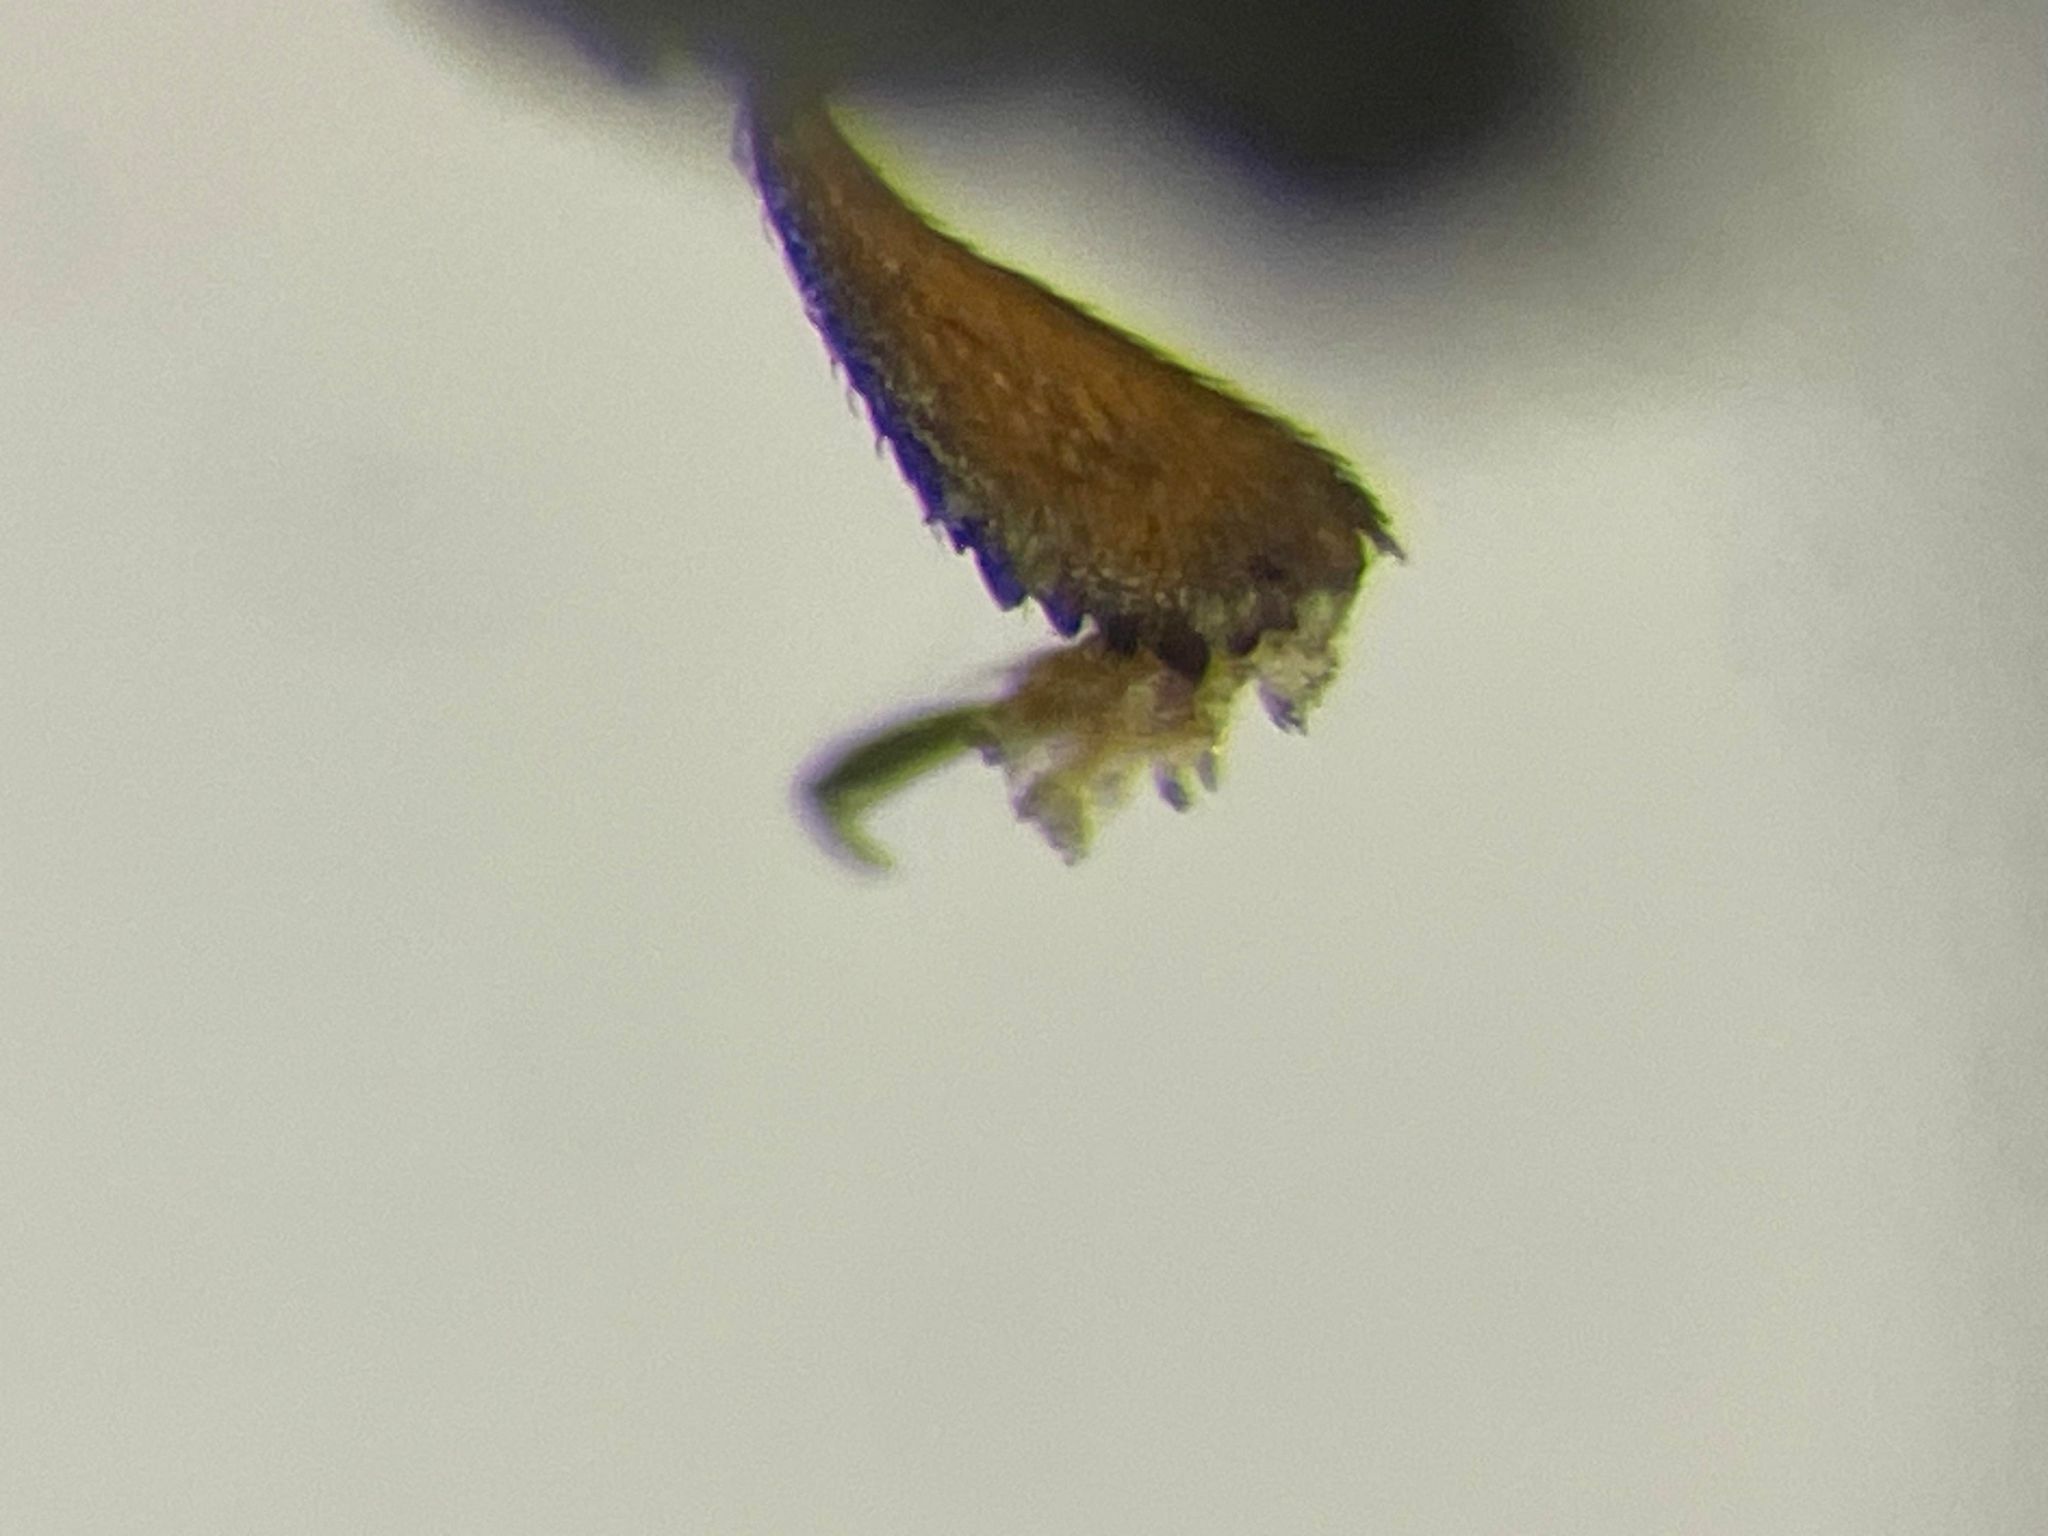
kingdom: Animalia
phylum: Arthropoda
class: Insecta
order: Coleoptera
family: Nitidulidae
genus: Genistogethes
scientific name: Genistogethes carinulatus
